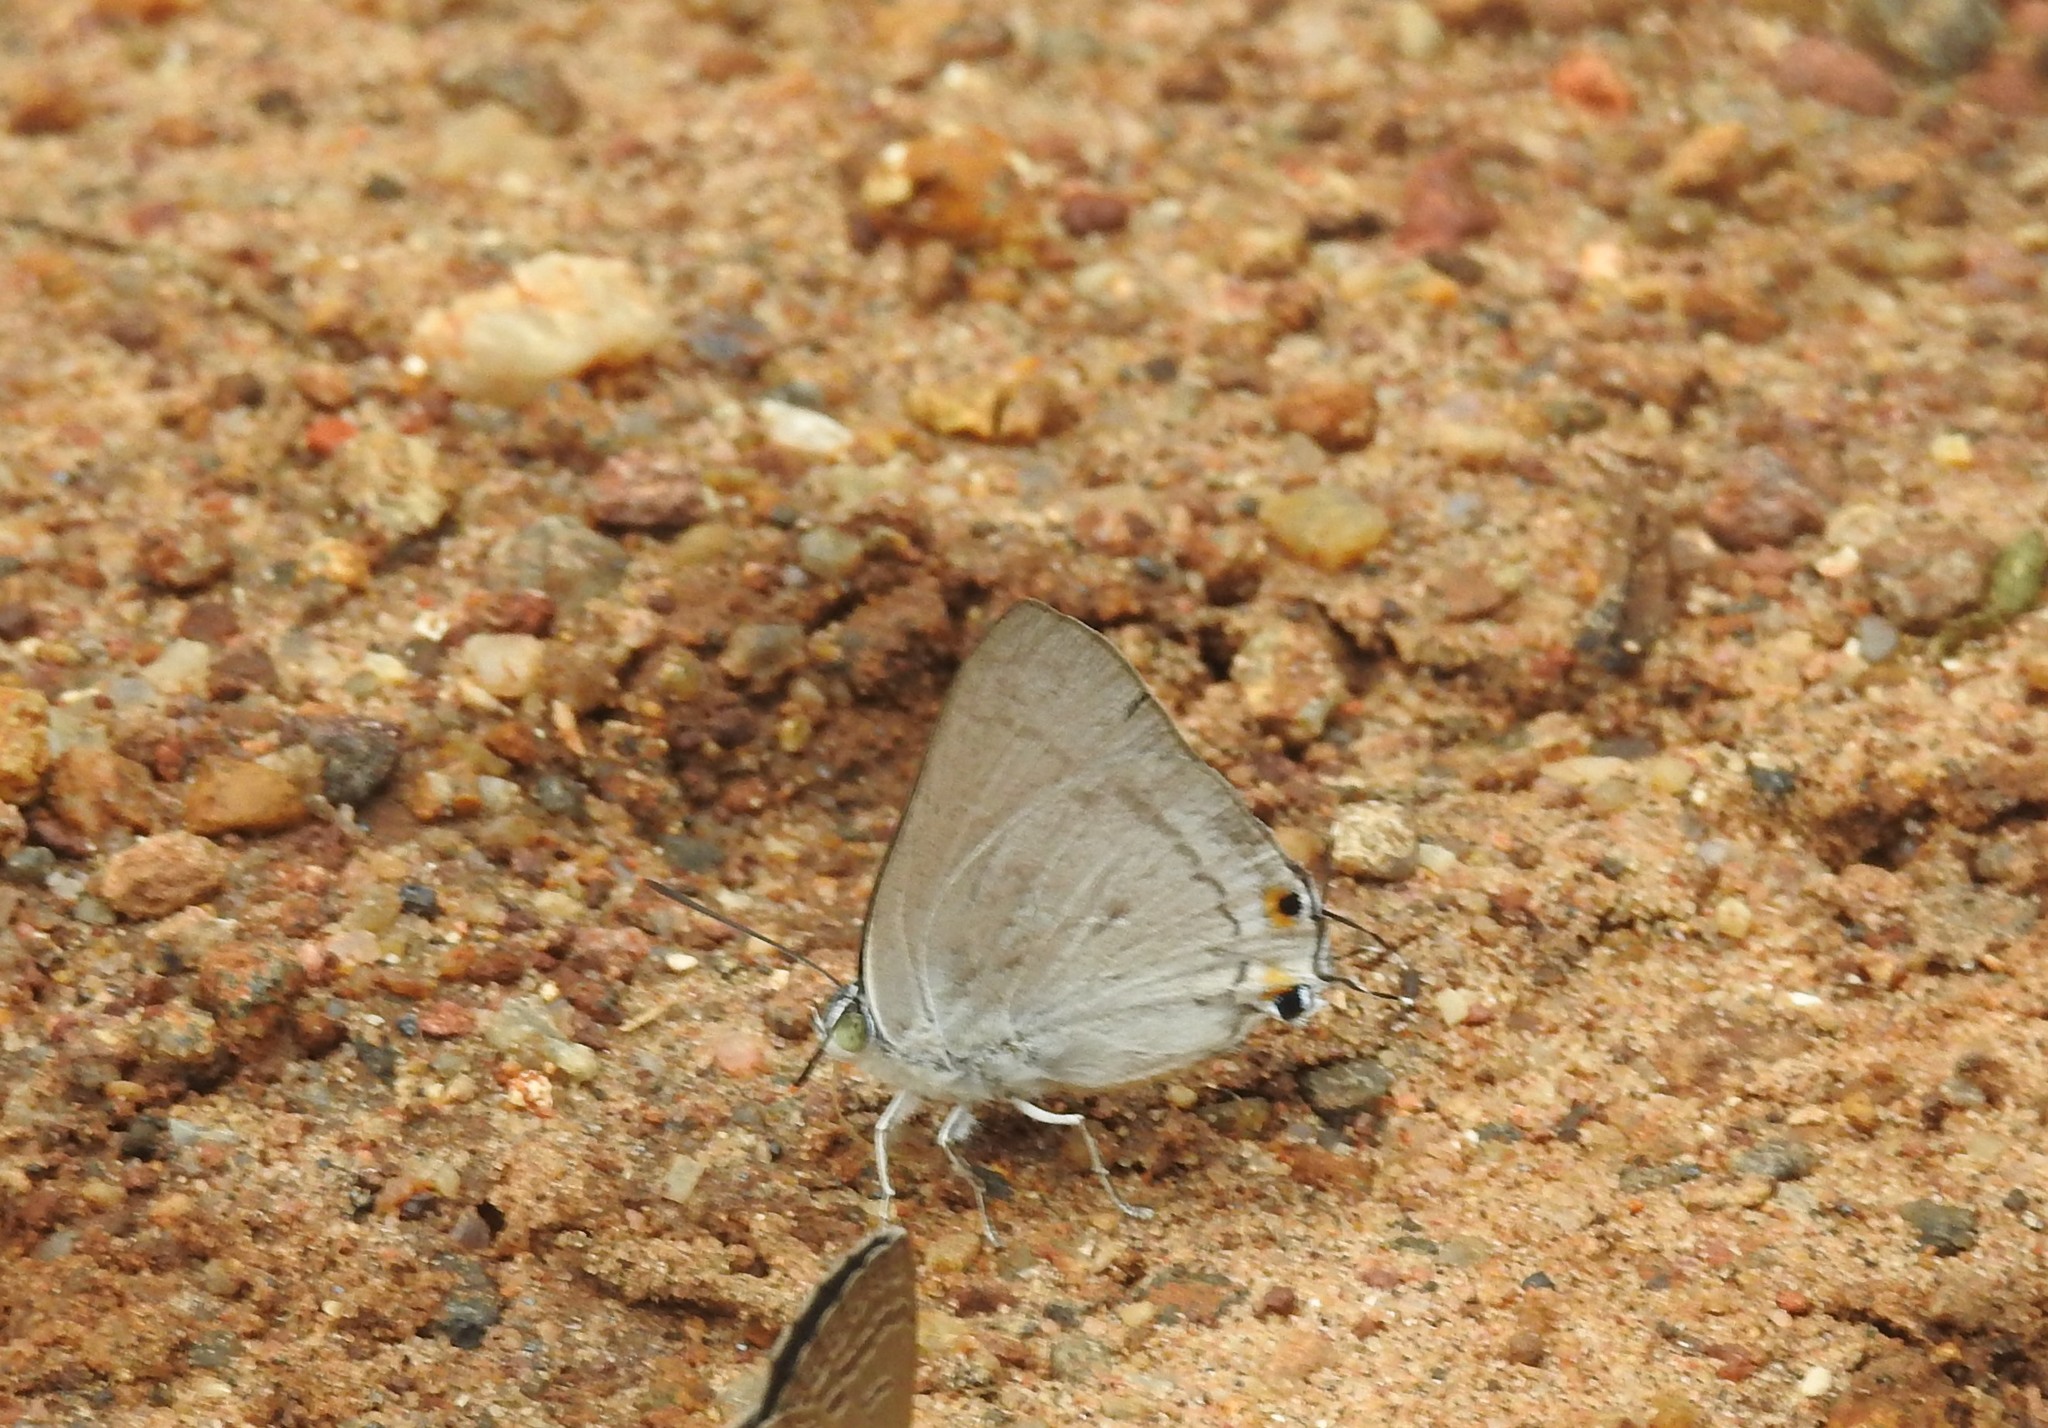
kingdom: Animalia
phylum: Arthropoda
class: Insecta
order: Lepidoptera
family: Lycaenidae
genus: Ancema
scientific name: Ancema blanka
